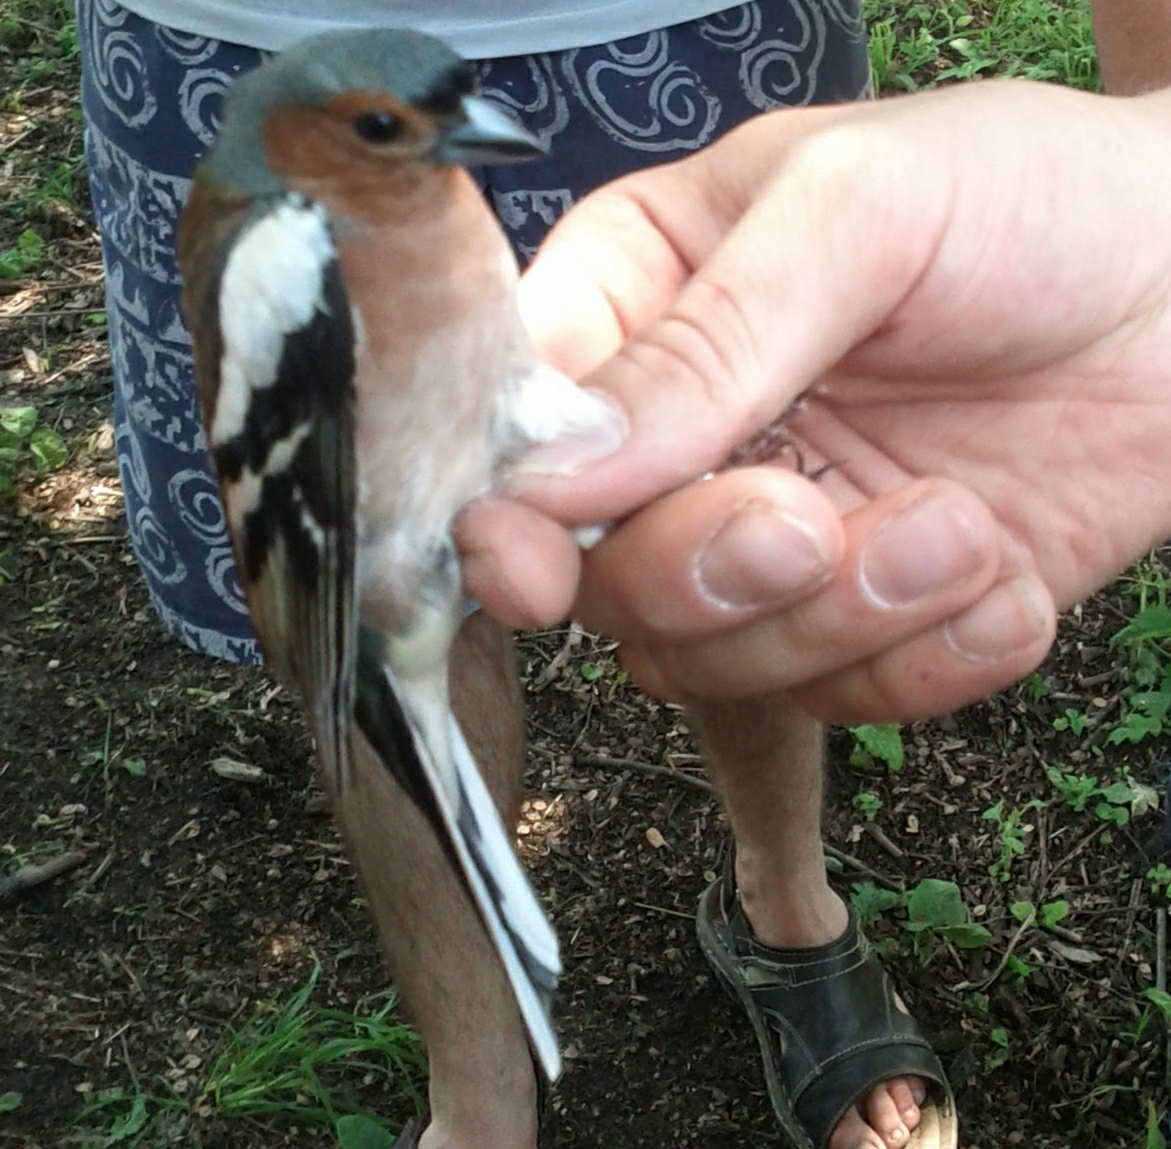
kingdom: Animalia
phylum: Chordata
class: Aves
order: Passeriformes
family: Fringillidae
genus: Fringilla
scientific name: Fringilla coelebs
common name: Common chaffinch
